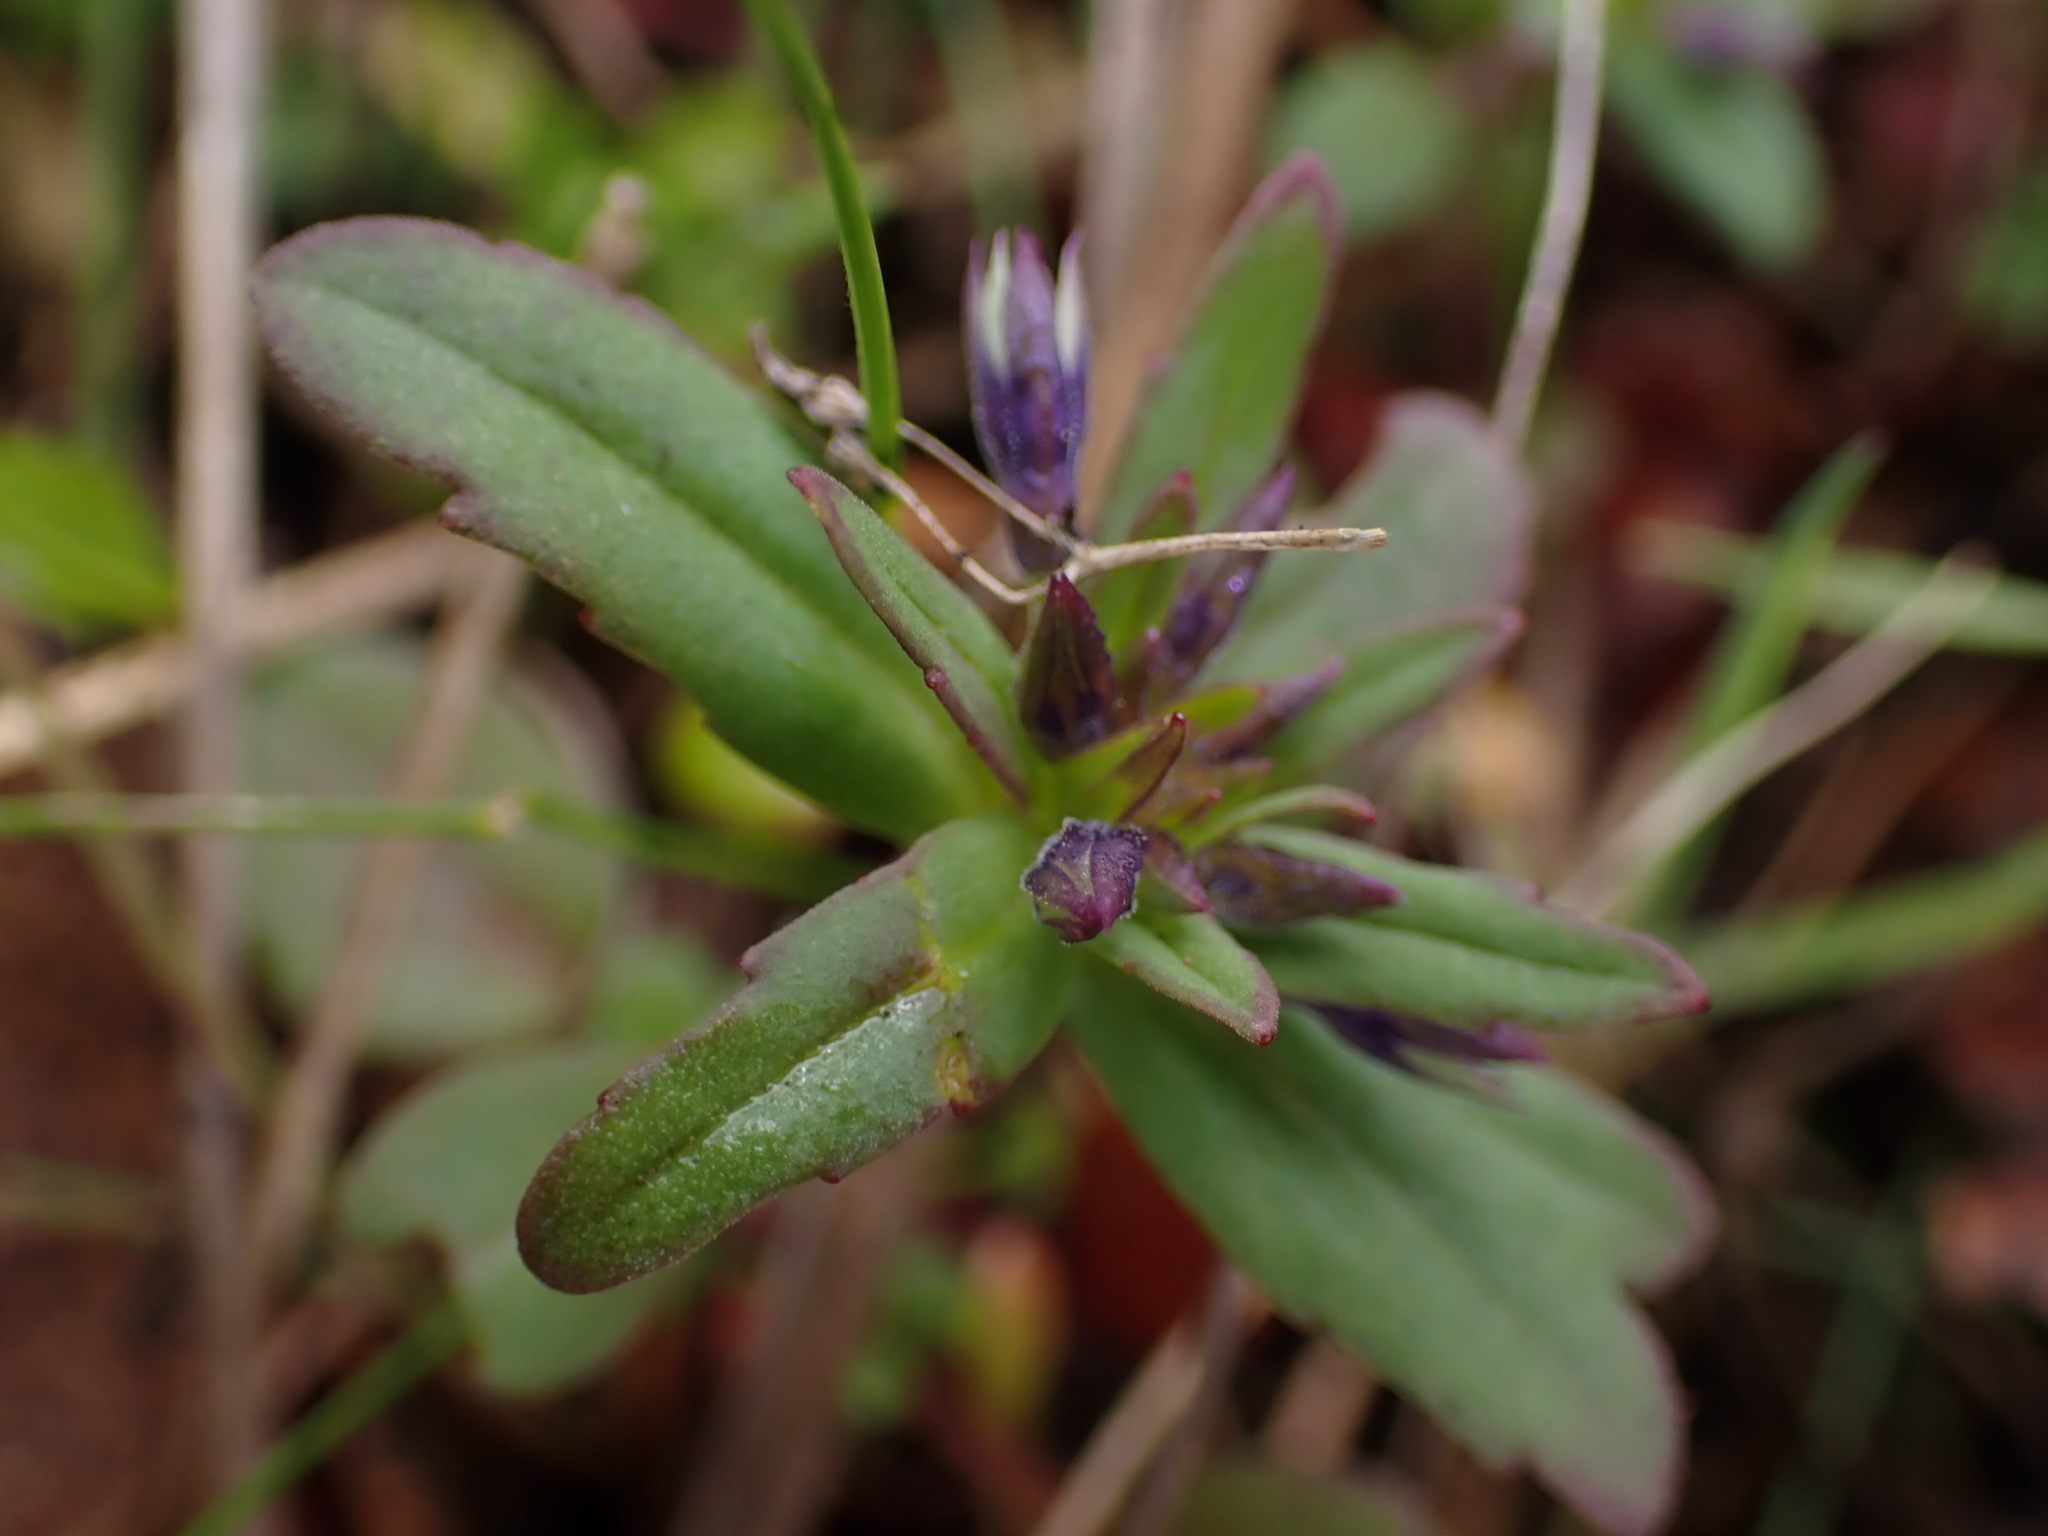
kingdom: Plantae
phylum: Tracheophyta
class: Magnoliopsida
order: Lamiales
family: Plantaginaceae
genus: Collinsia
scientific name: Collinsia parviflora
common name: Blue-lips
